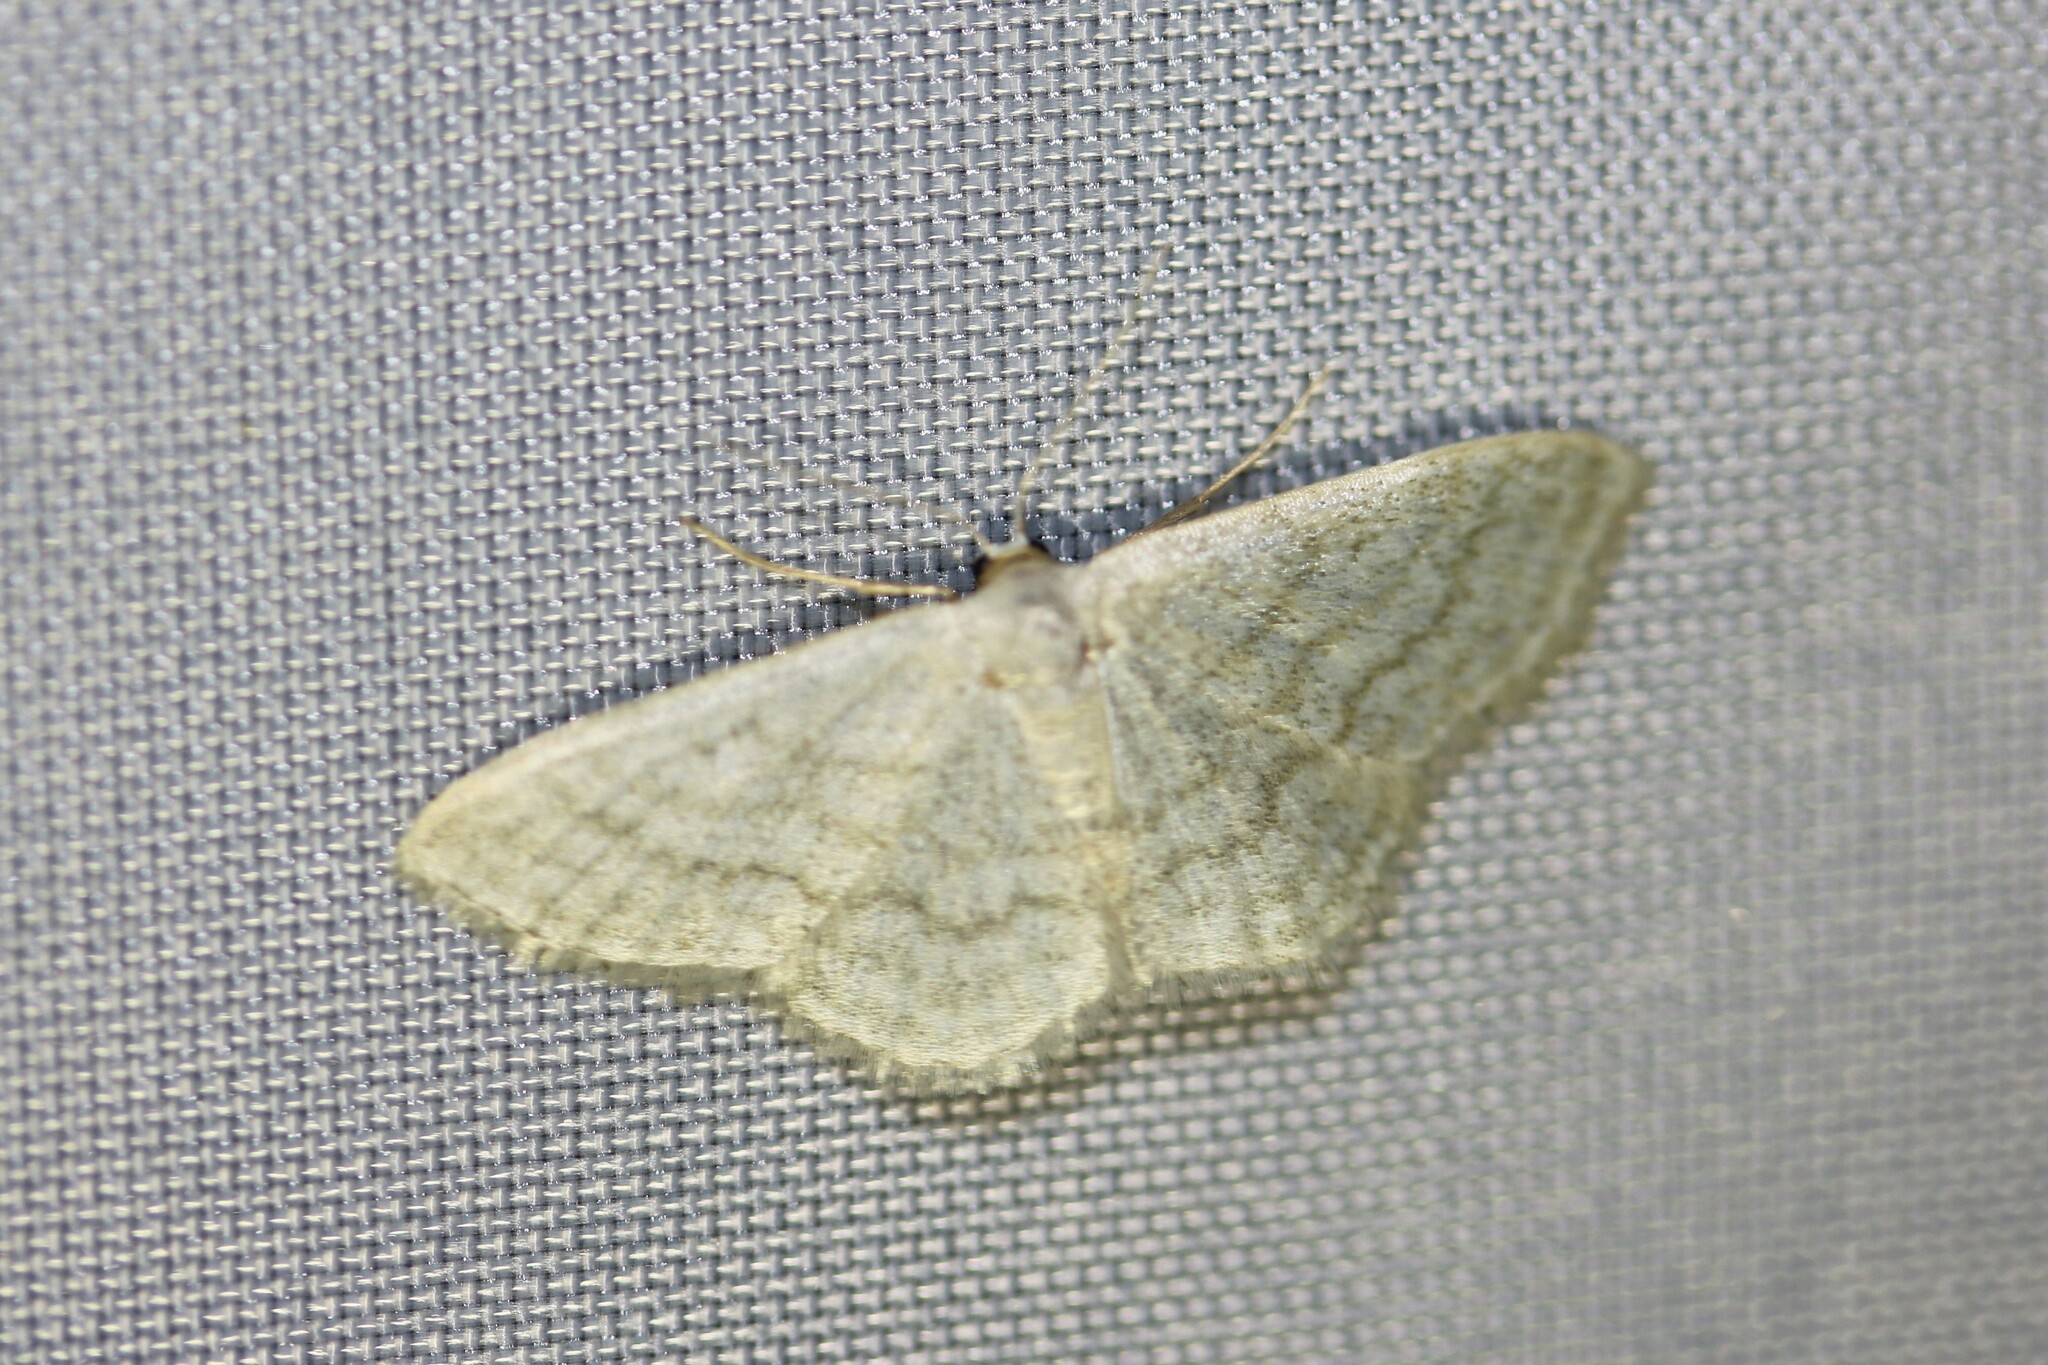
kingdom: Animalia
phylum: Arthropoda
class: Insecta
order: Lepidoptera
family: Geometridae
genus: Idaea
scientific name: Idaea subsericeata
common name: Satin wave
